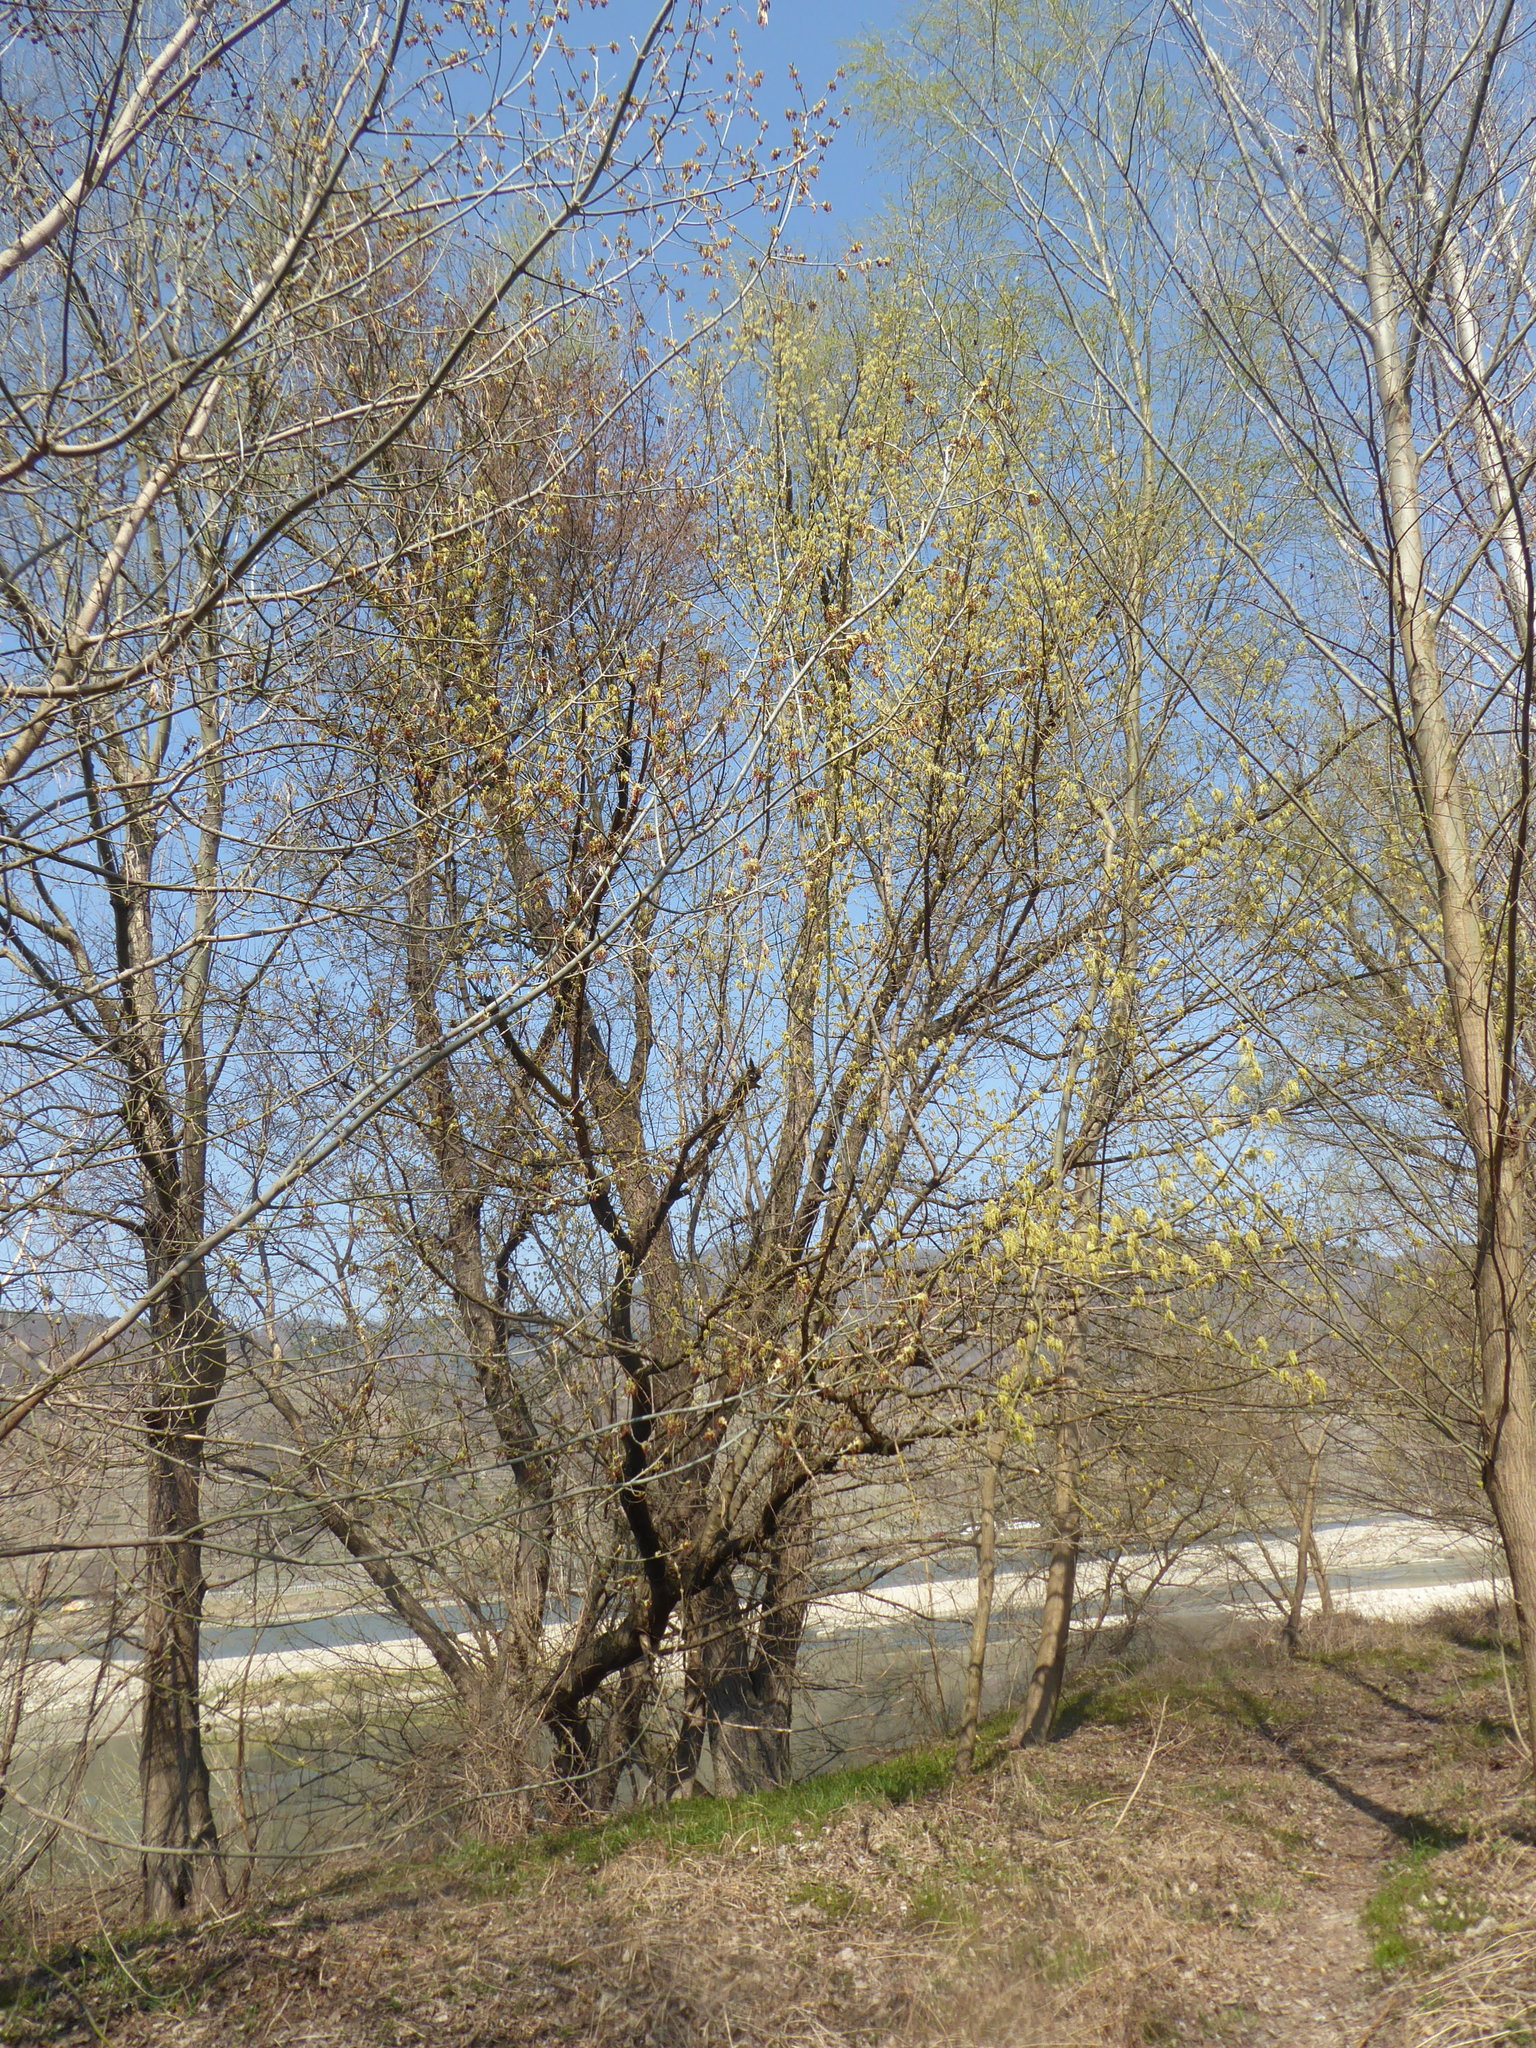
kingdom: Plantae
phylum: Tracheophyta
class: Magnoliopsida
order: Sapindales
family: Sapindaceae
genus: Acer
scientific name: Acer negundo
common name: Ashleaf maple
